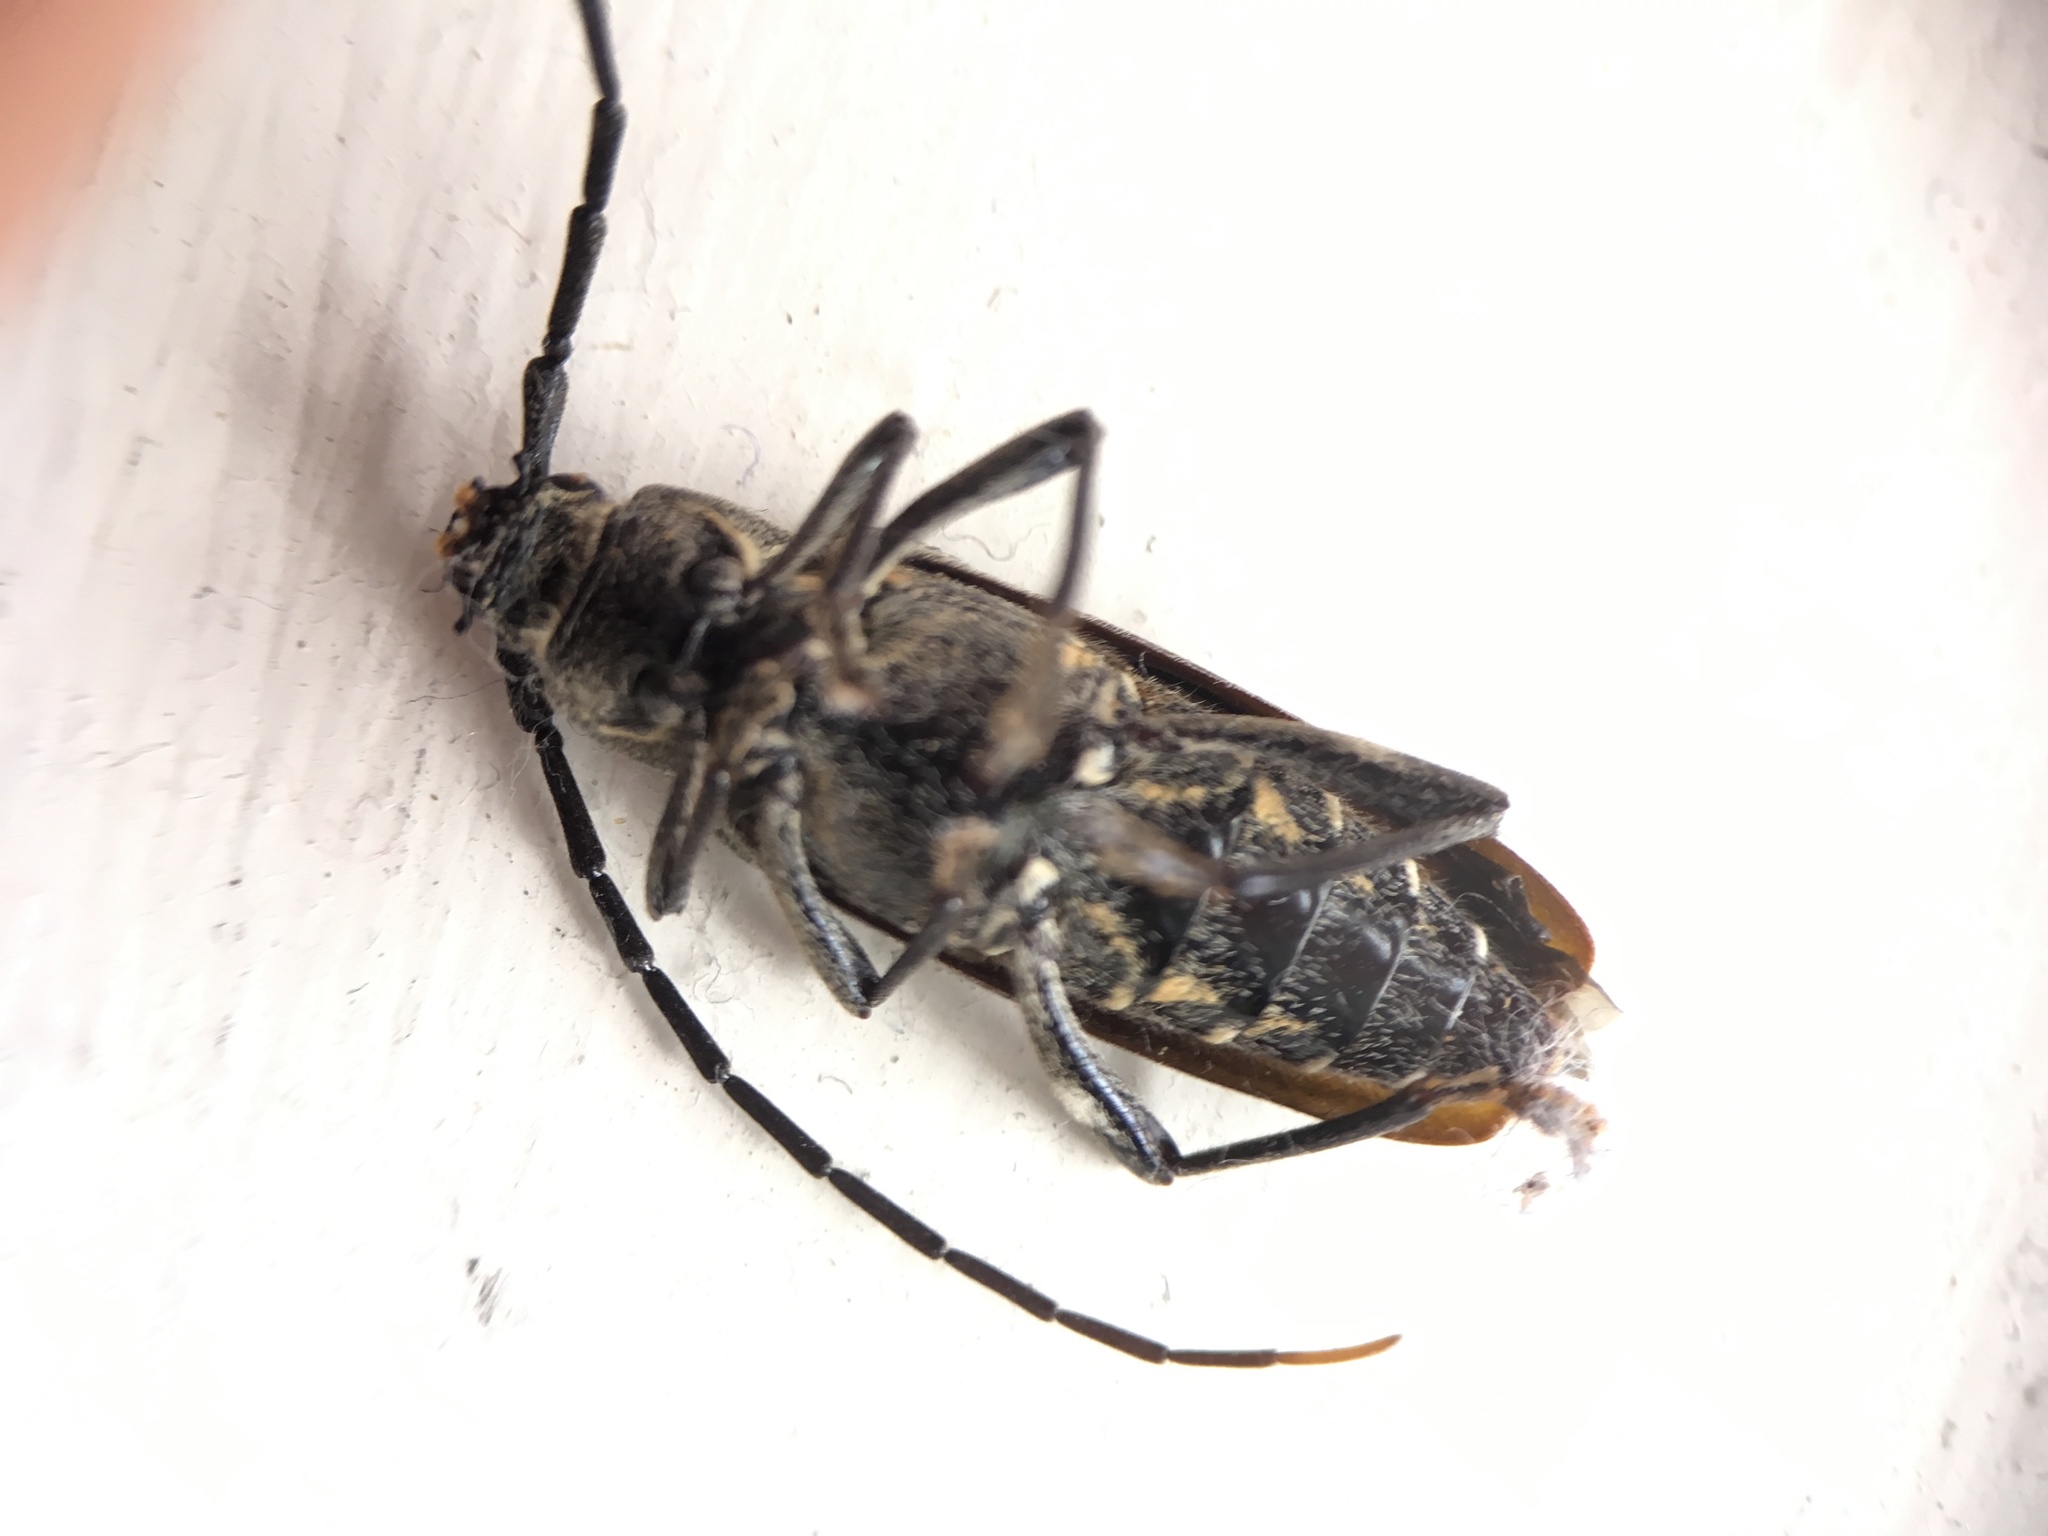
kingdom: Animalia
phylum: Arthropoda
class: Insecta
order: Coleoptera
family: Cerambycidae
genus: Coptomma
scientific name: Coptomma variegatum
